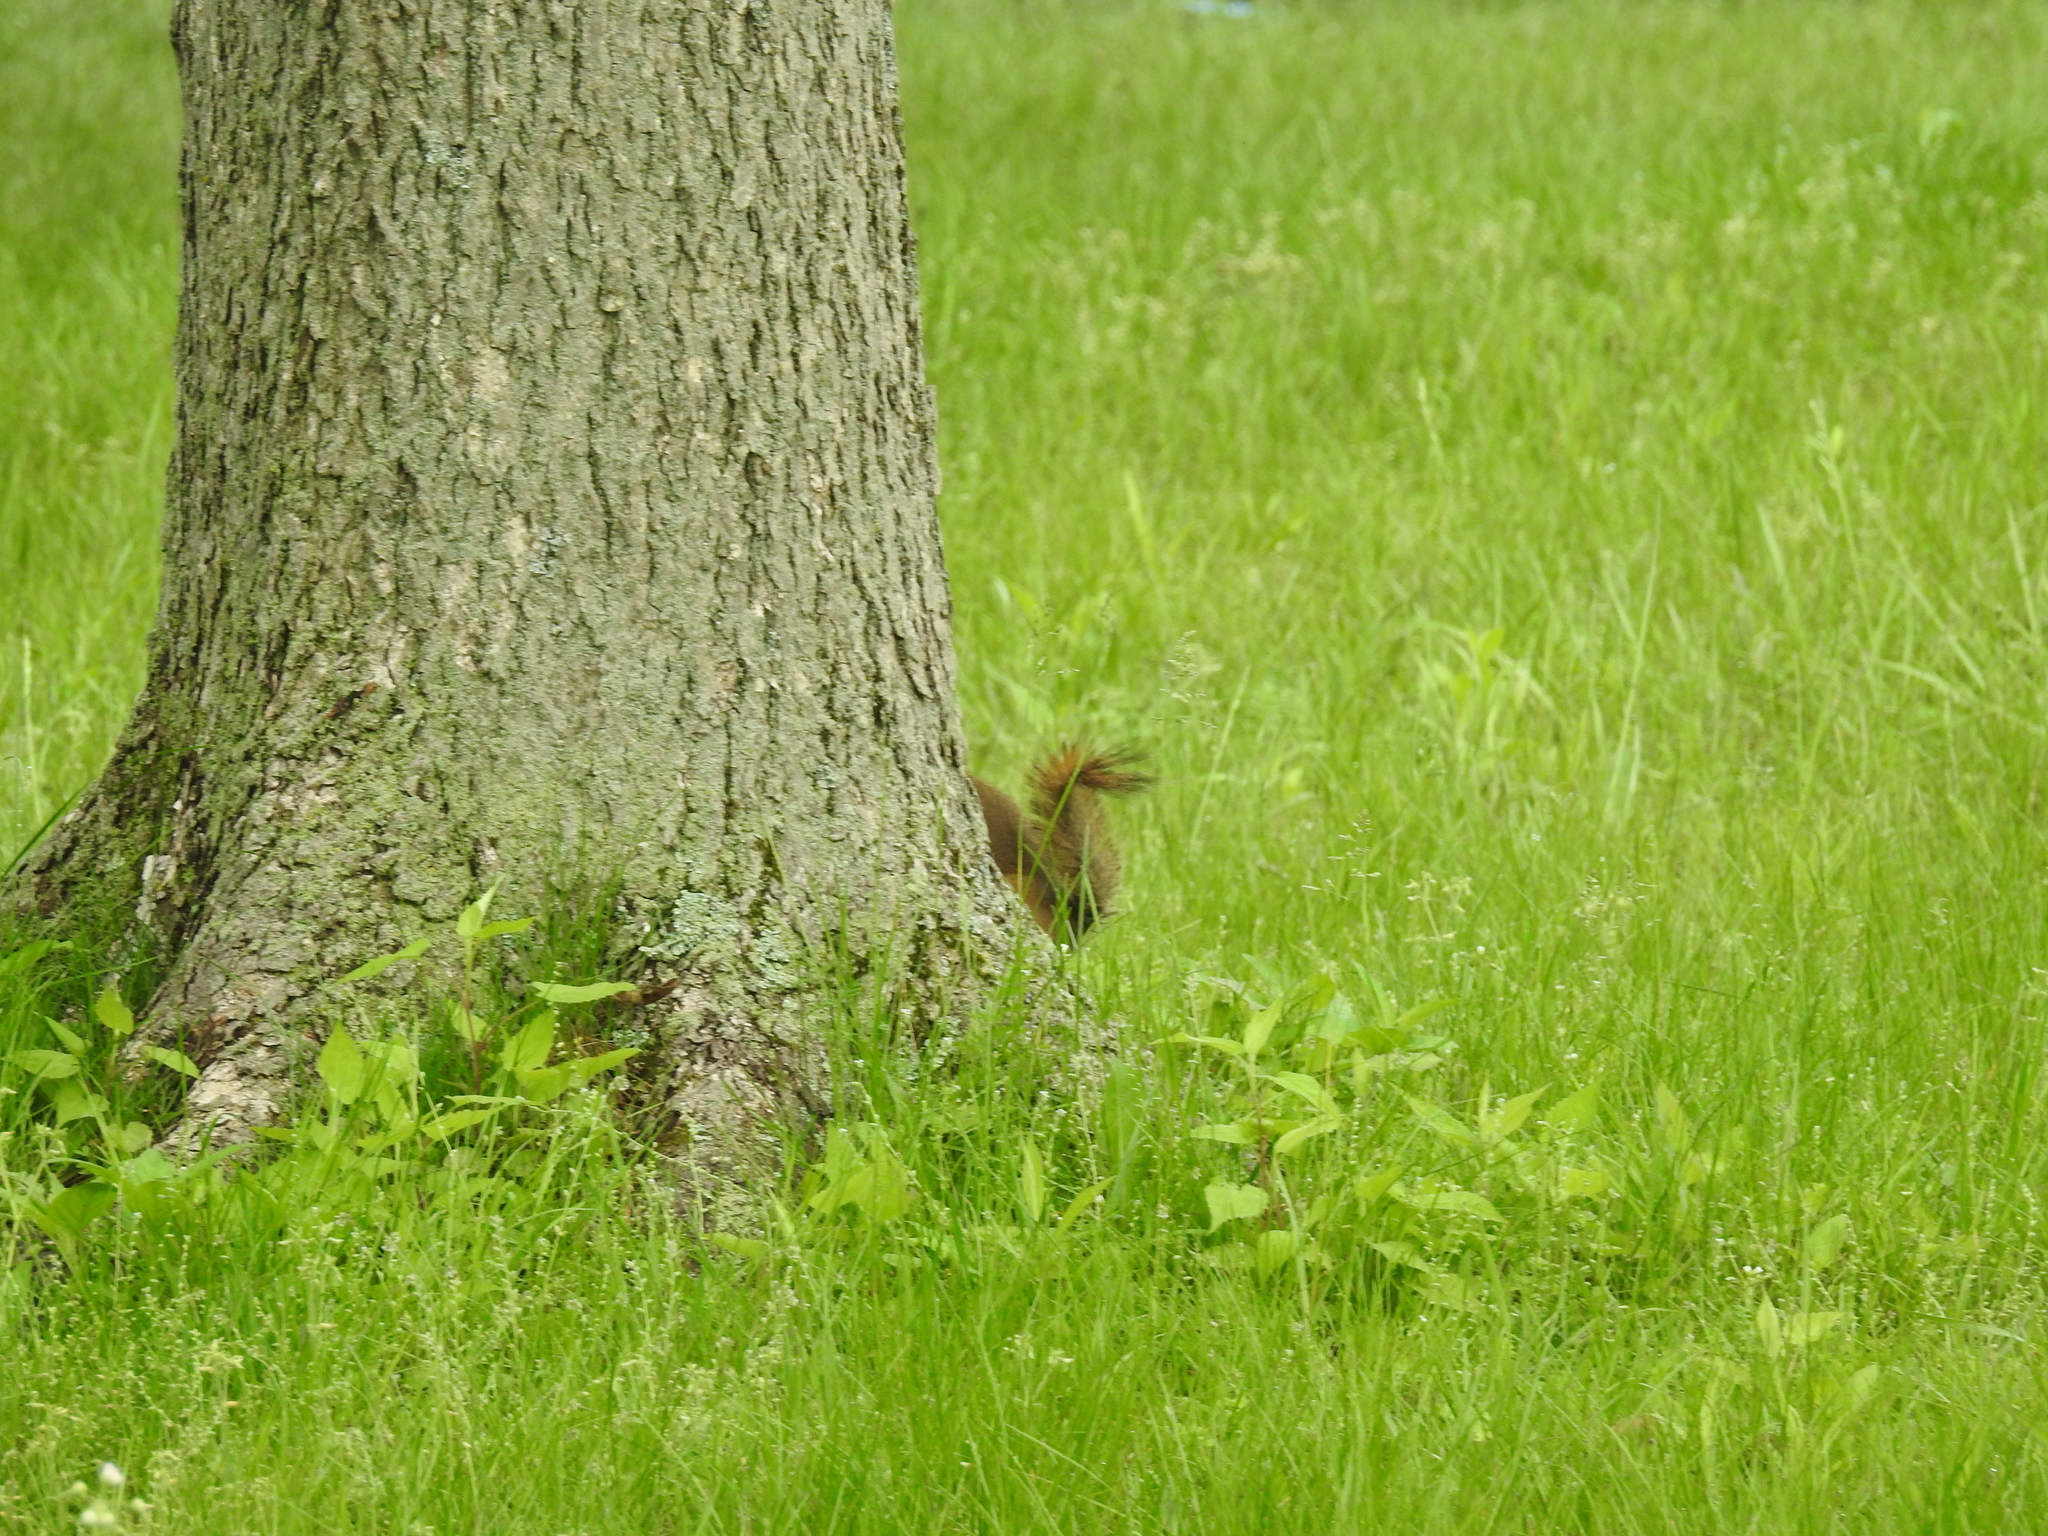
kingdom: Animalia
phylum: Chordata
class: Mammalia
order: Rodentia
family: Sciuridae
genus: Tamiasciurus
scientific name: Tamiasciurus hudsonicus
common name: Red squirrel
